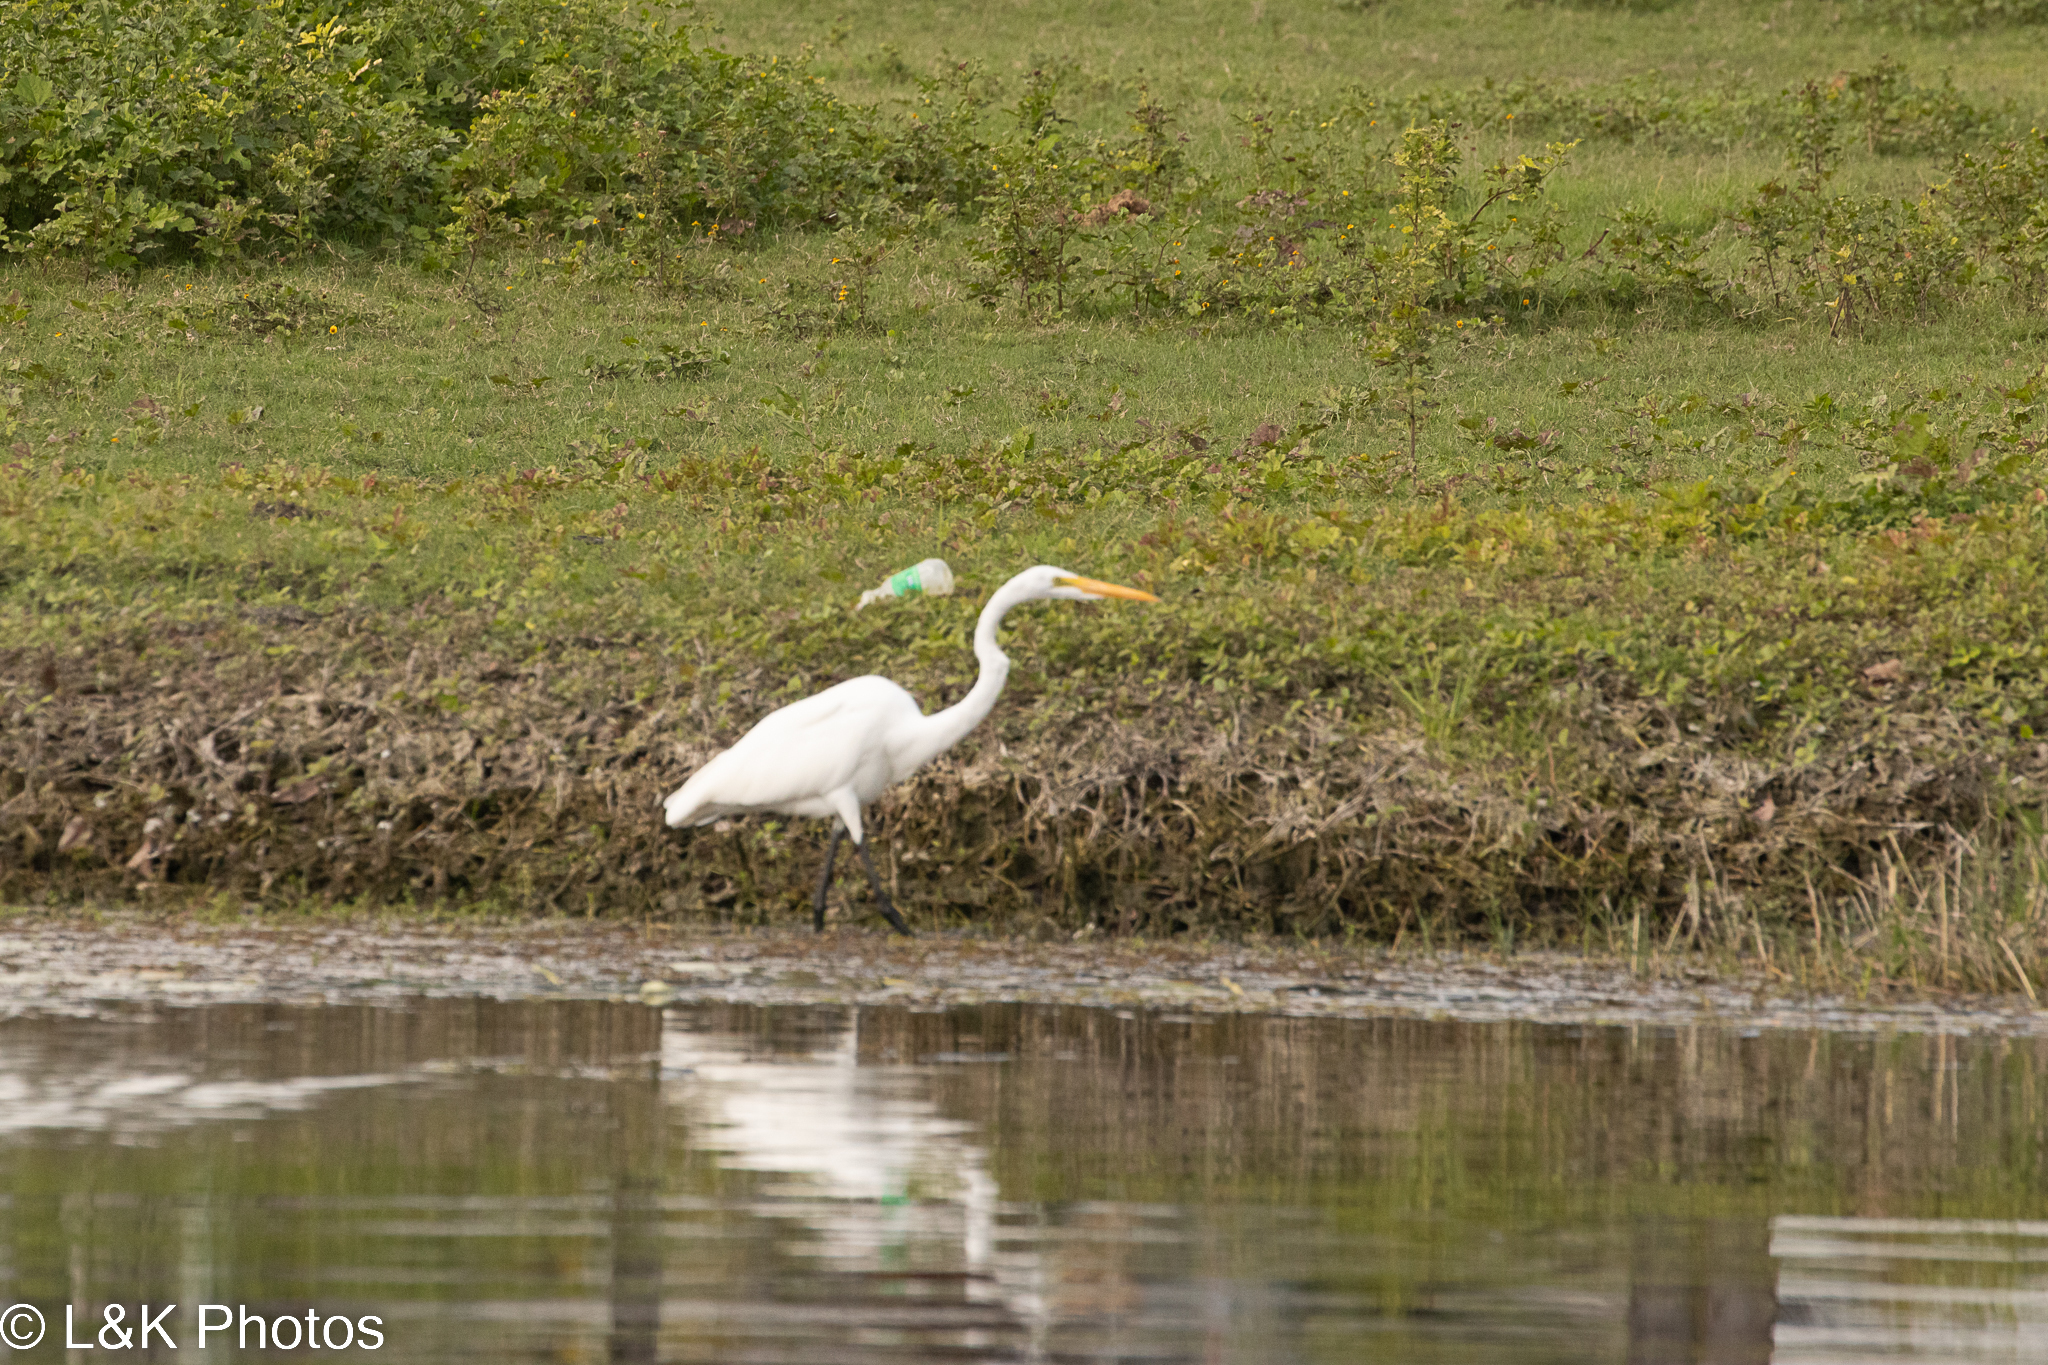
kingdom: Animalia
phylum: Chordata
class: Aves
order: Pelecaniformes
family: Ardeidae
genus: Ardea
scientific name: Ardea alba
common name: Great egret
